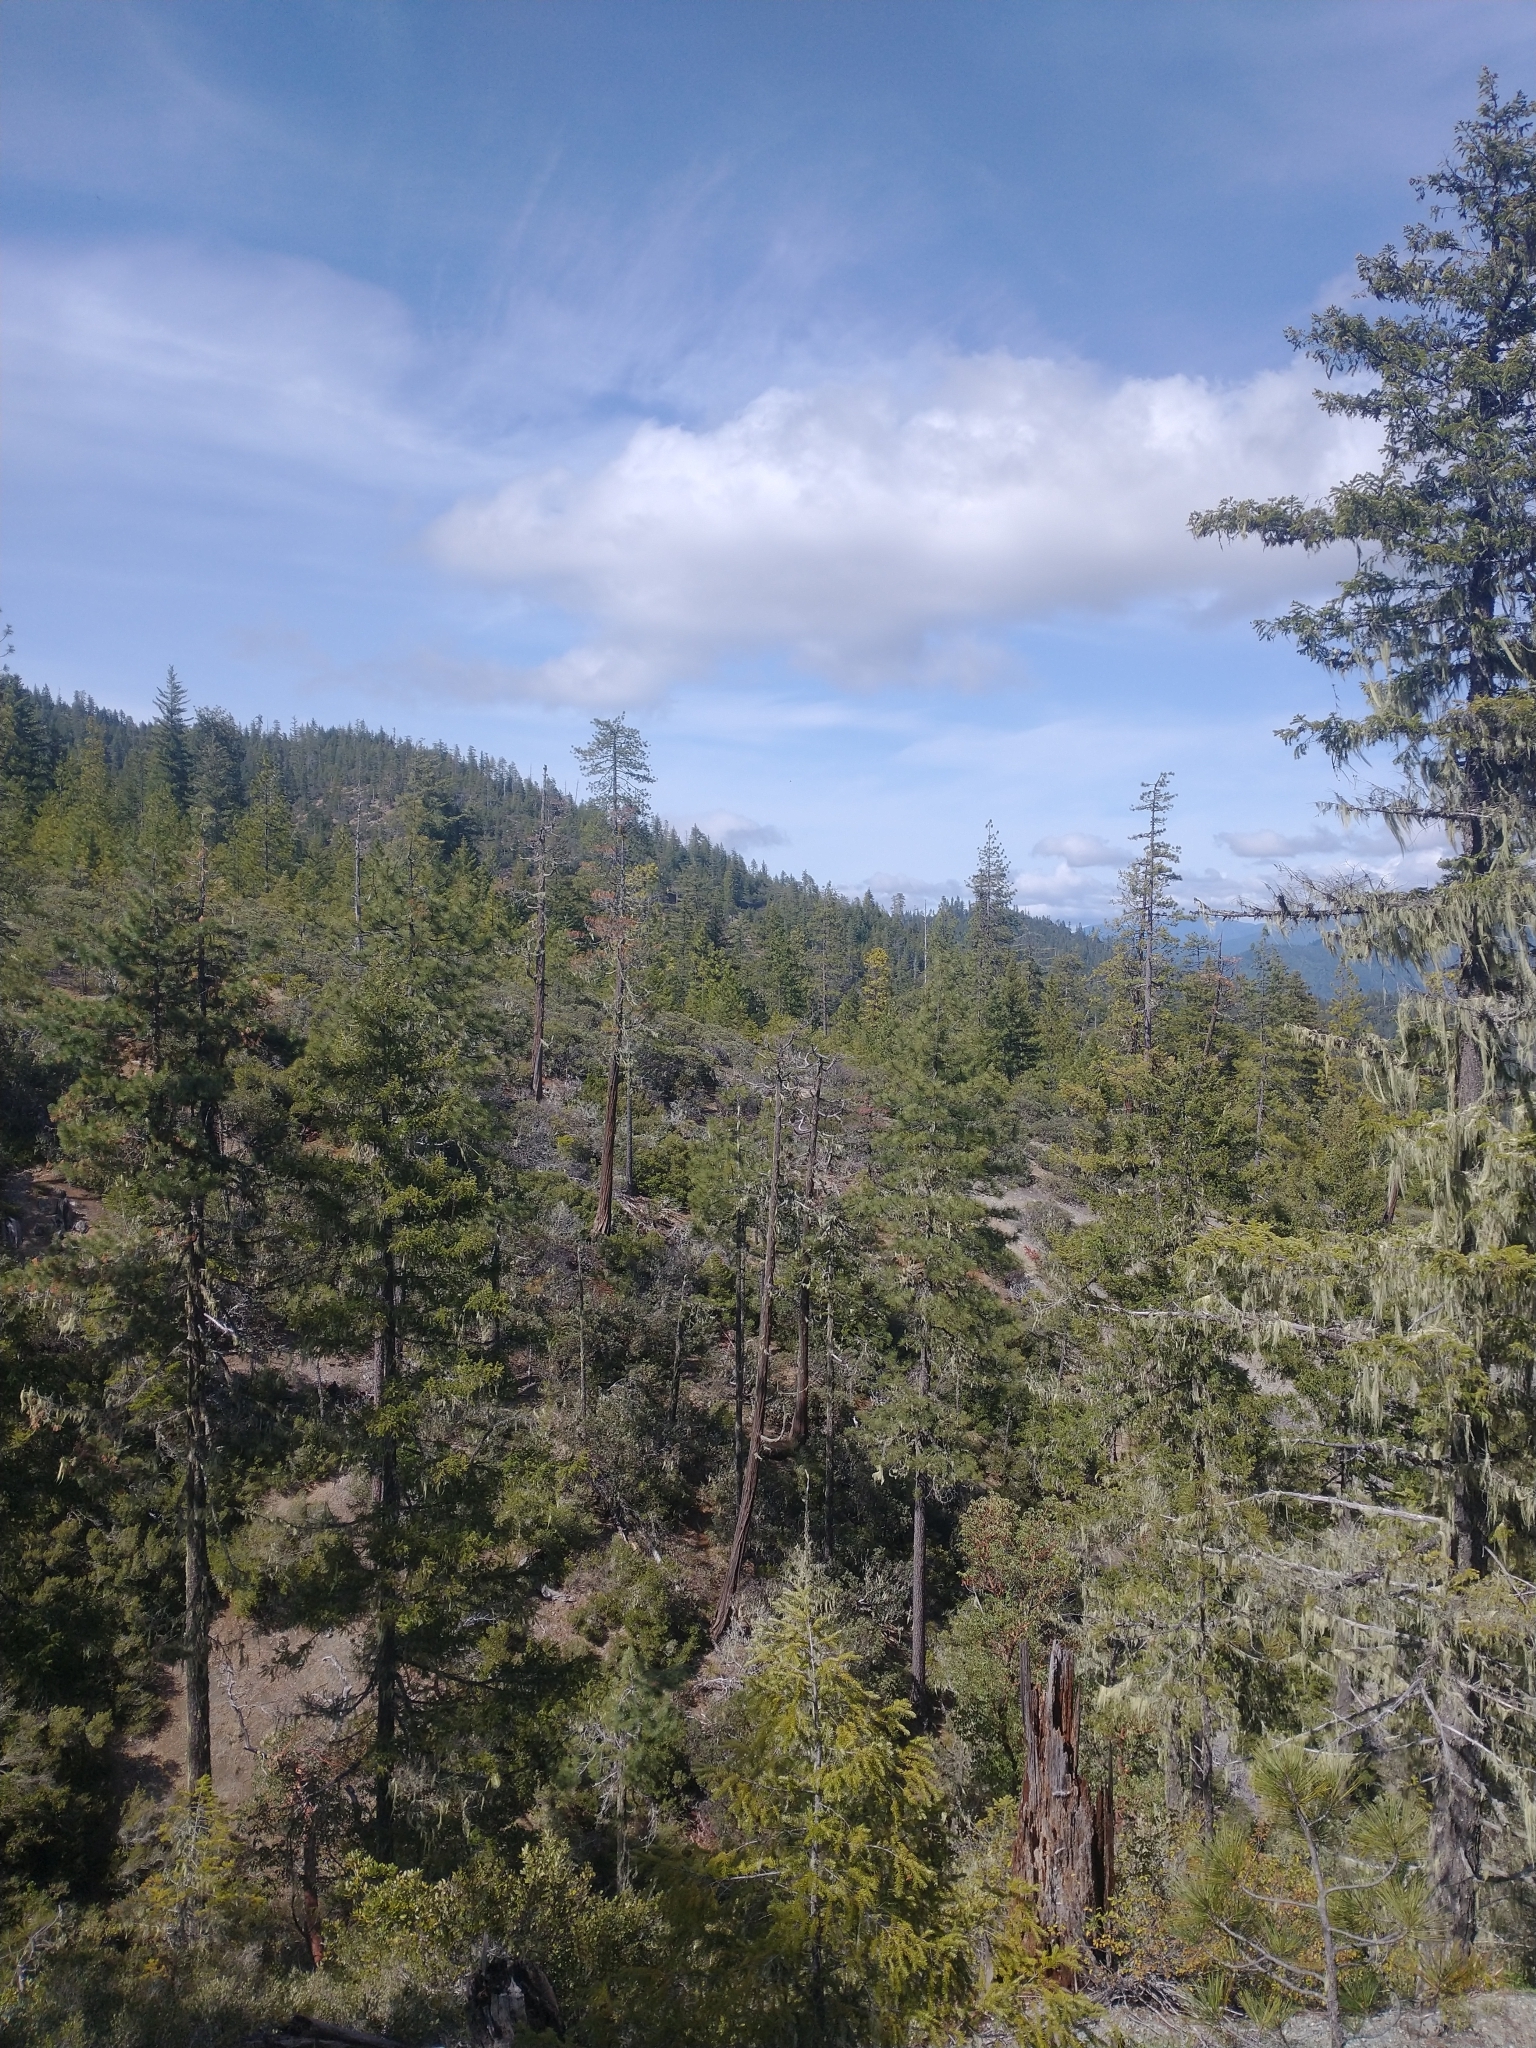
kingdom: Plantae
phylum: Tracheophyta
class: Pinopsida
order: Pinales
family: Pinaceae
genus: Pseudotsuga
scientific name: Pseudotsuga menziesii
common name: Douglas fir
